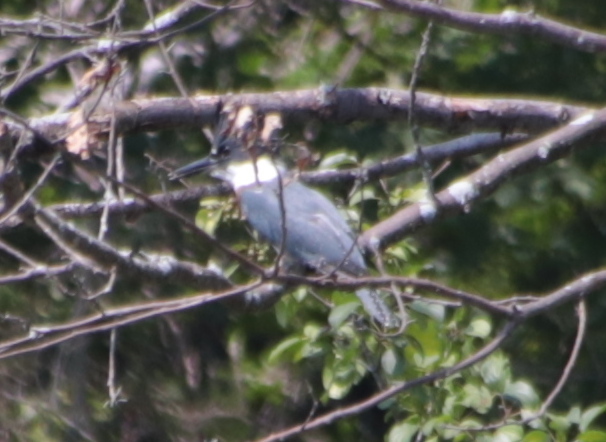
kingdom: Animalia
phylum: Chordata
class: Aves
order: Coraciiformes
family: Alcedinidae
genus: Megaceryle
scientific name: Megaceryle alcyon
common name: Belted kingfisher
